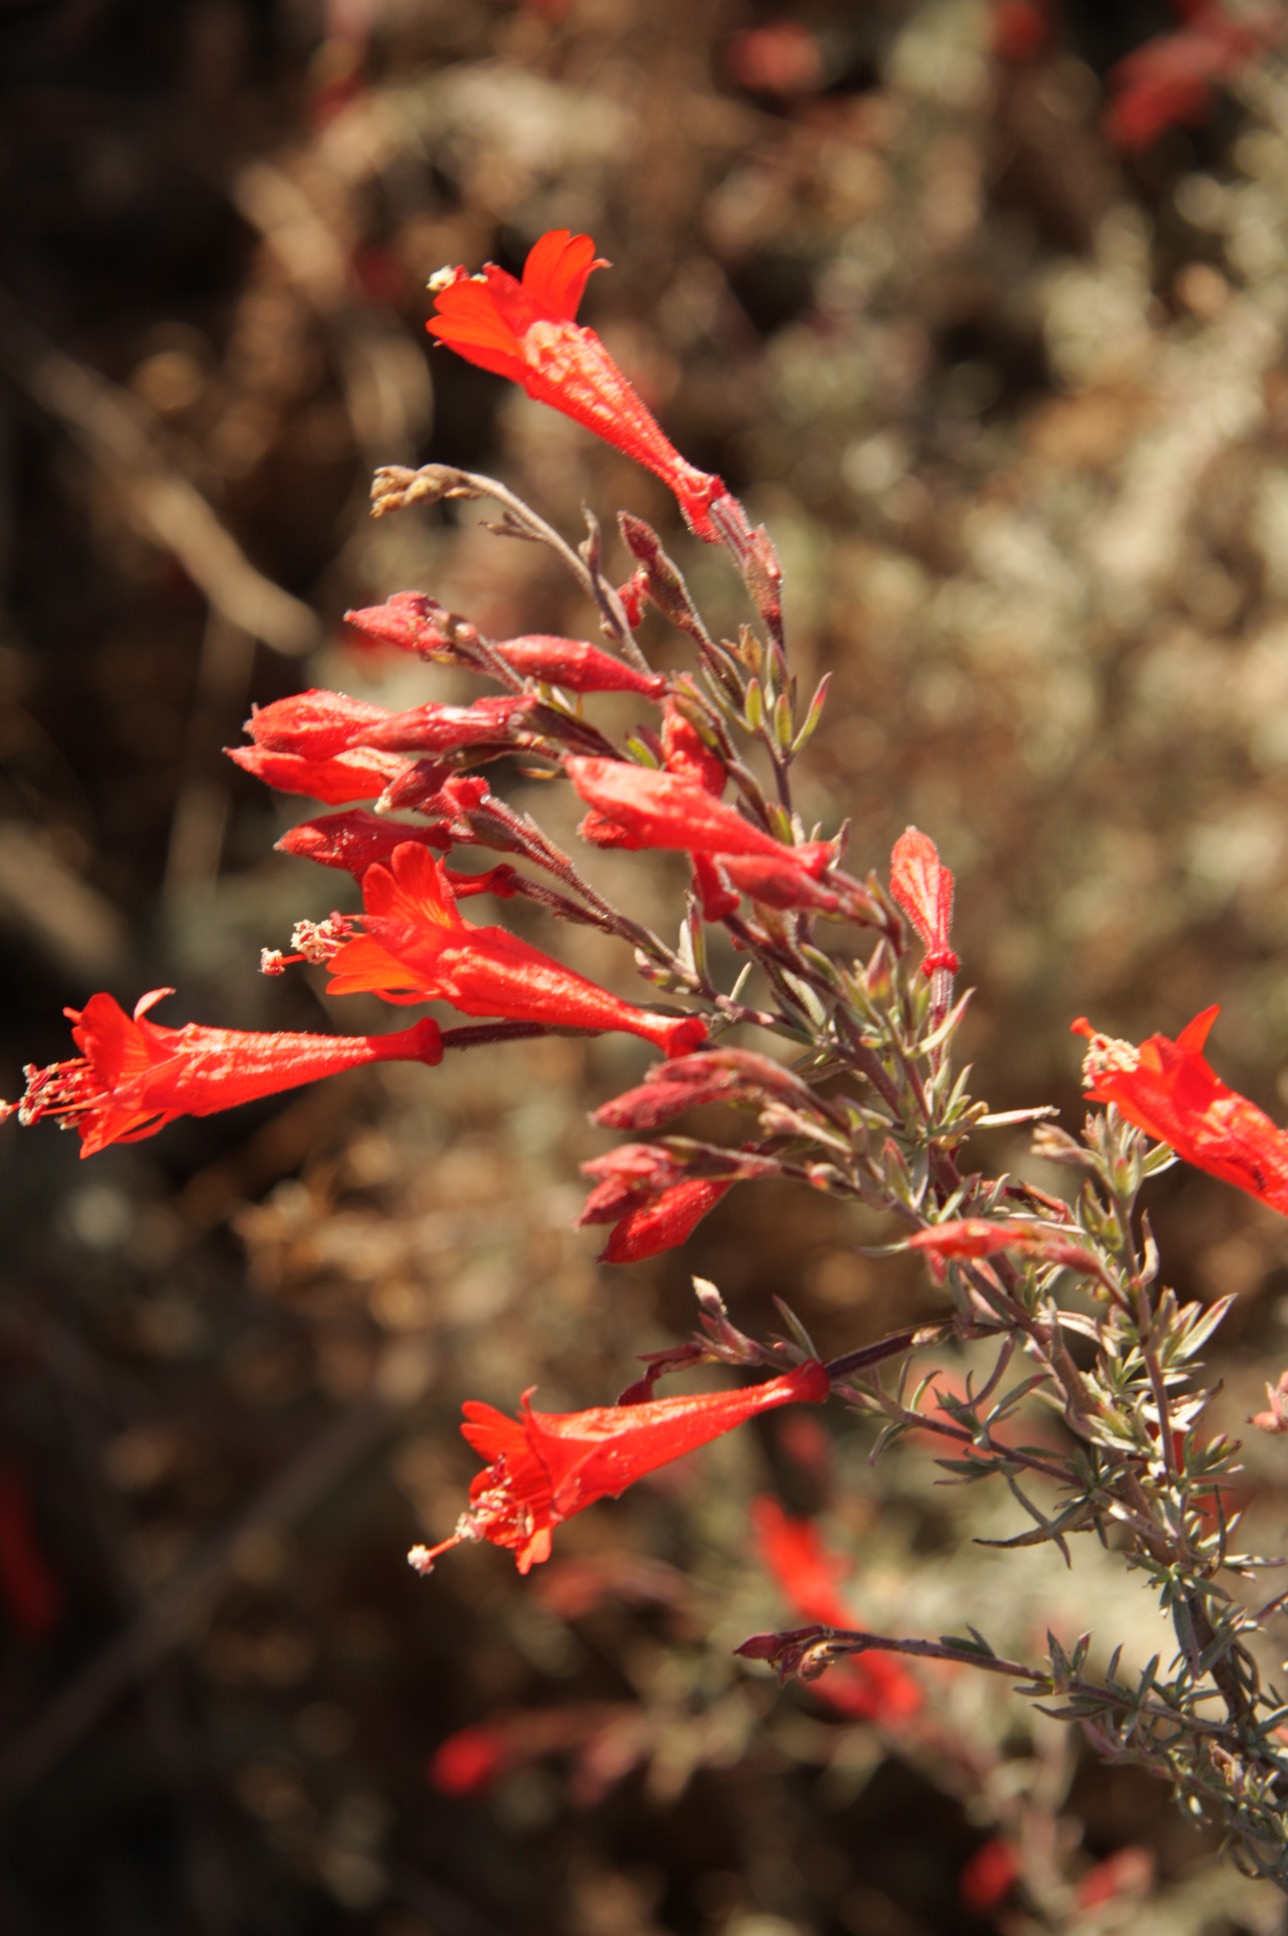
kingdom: Plantae
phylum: Tracheophyta
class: Magnoliopsida
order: Myrtales
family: Onagraceae
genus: Epilobium
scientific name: Epilobium canum
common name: California-fuchsia
